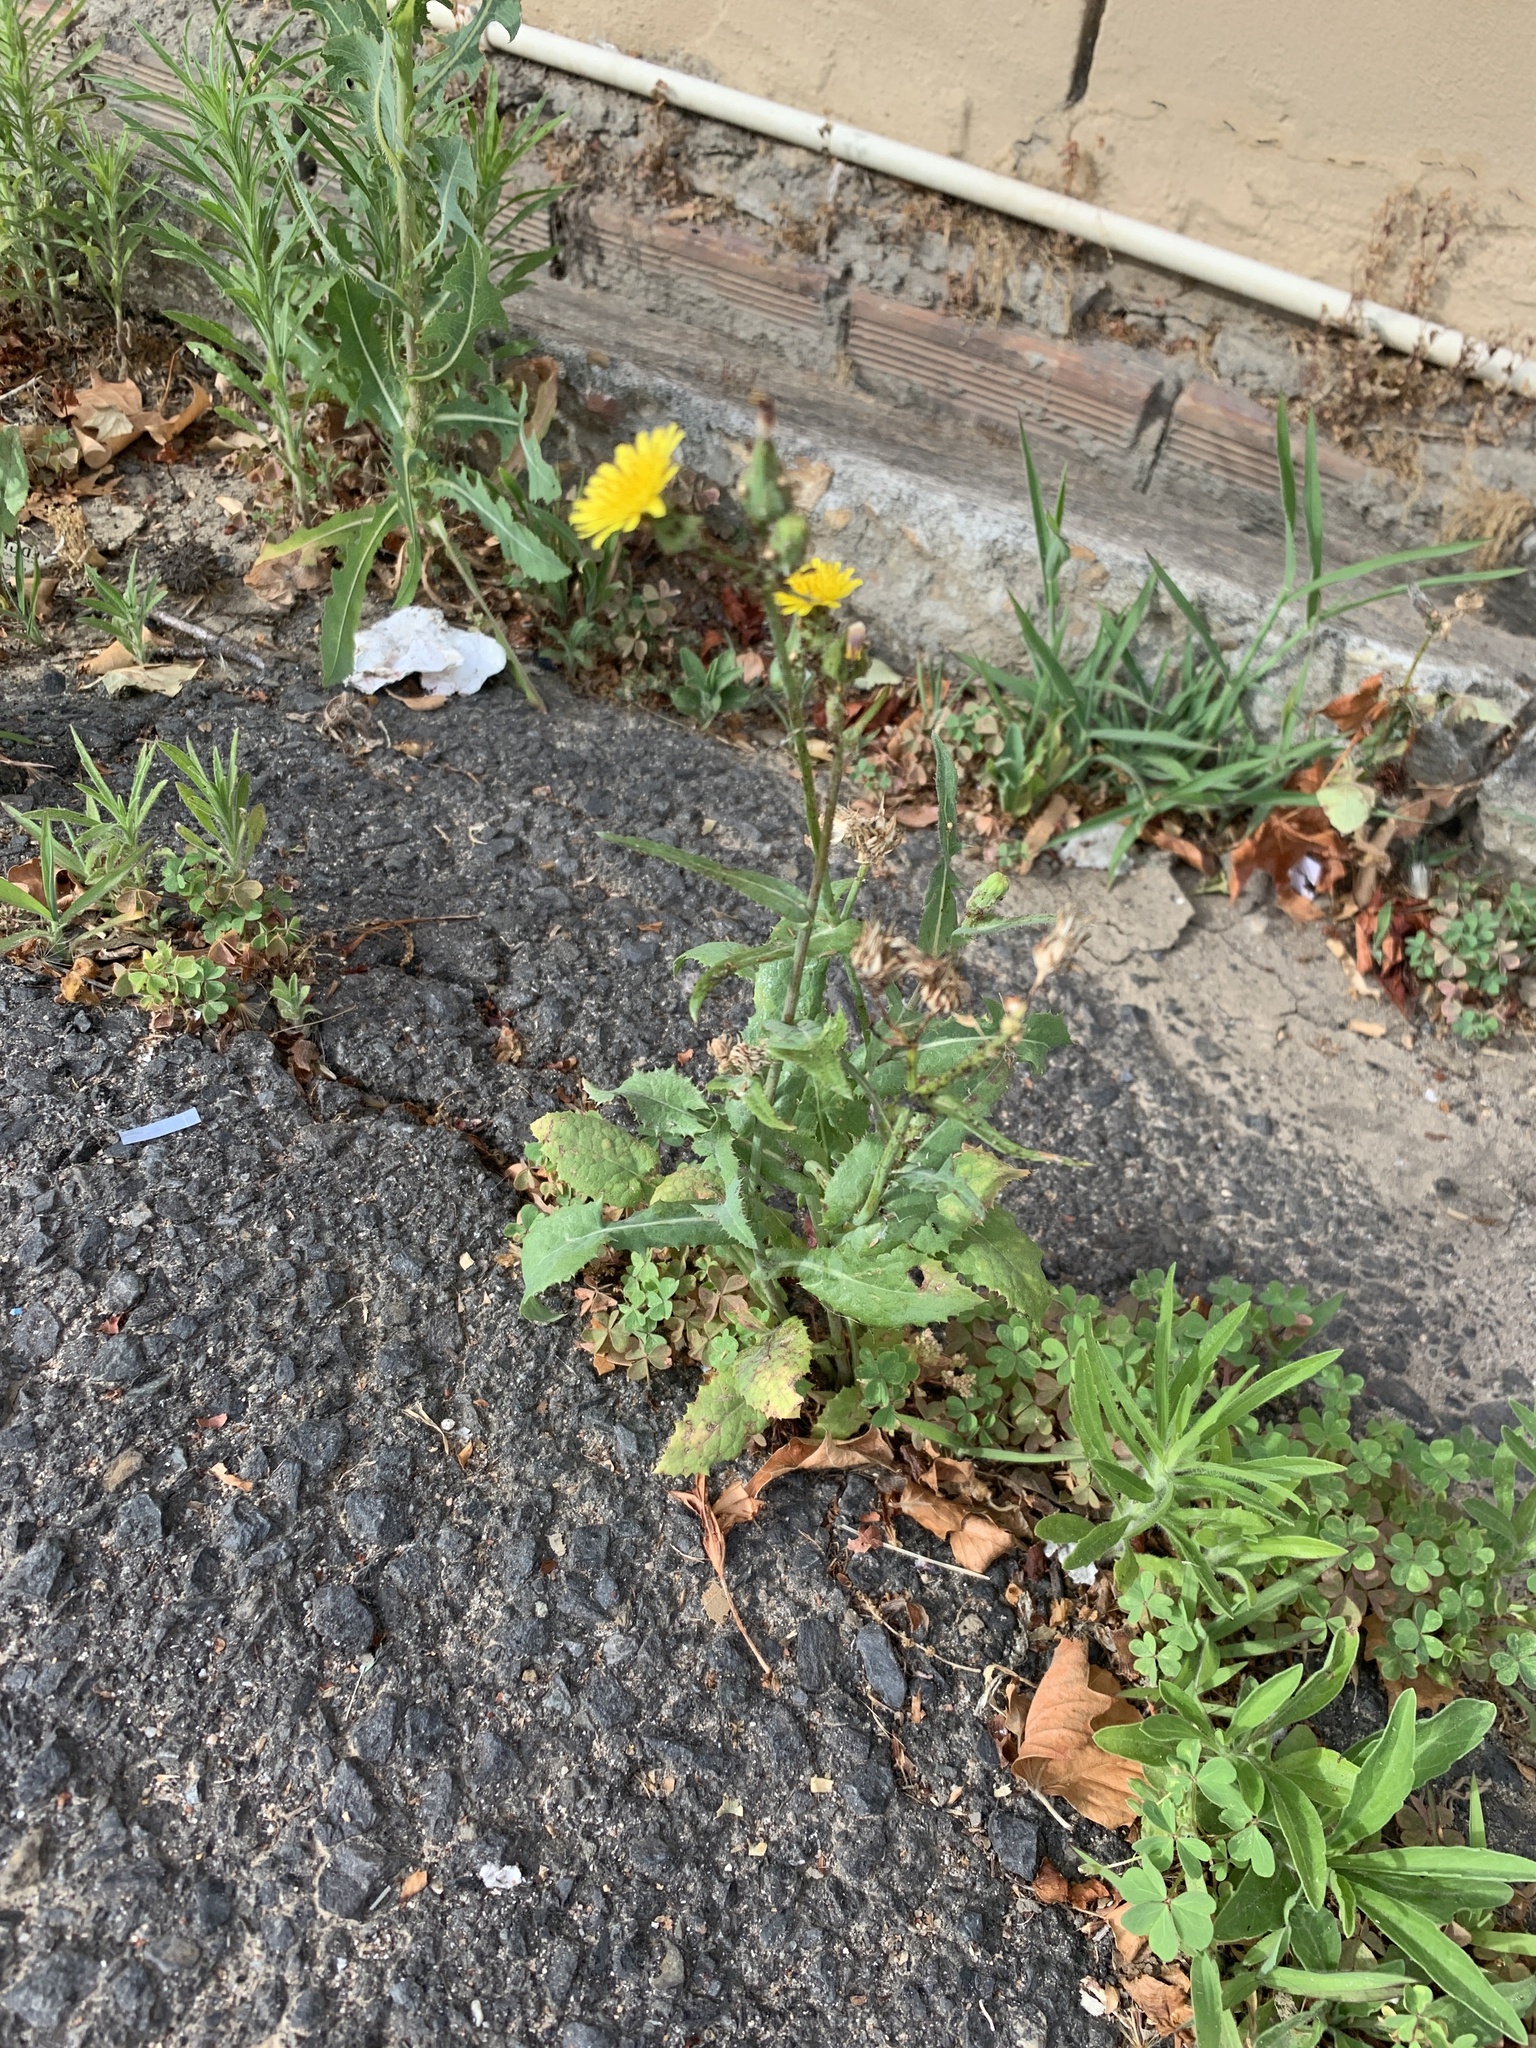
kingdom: Plantae
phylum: Tracheophyta
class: Magnoliopsida
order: Asterales
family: Asteraceae
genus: Sonchus
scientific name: Sonchus oleraceus
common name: Common sowthistle
